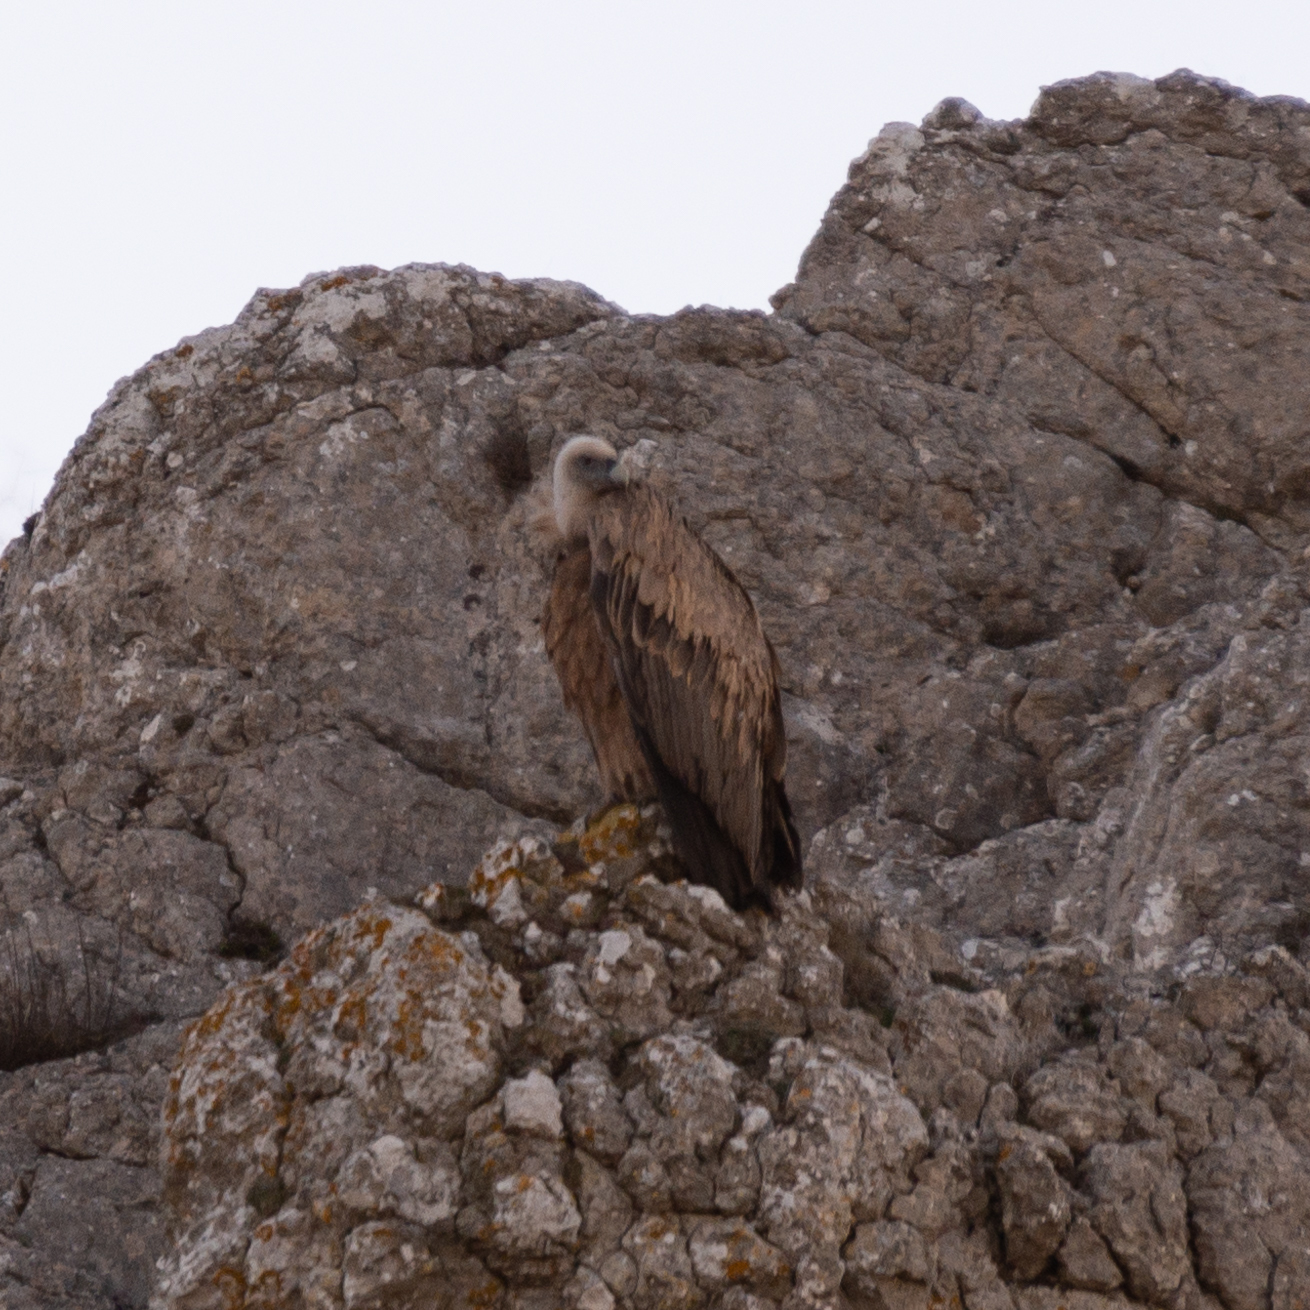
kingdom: Animalia
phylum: Chordata
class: Aves
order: Accipitriformes
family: Accipitridae
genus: Gyps
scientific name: Gyps fulvus
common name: Griffon vulture
